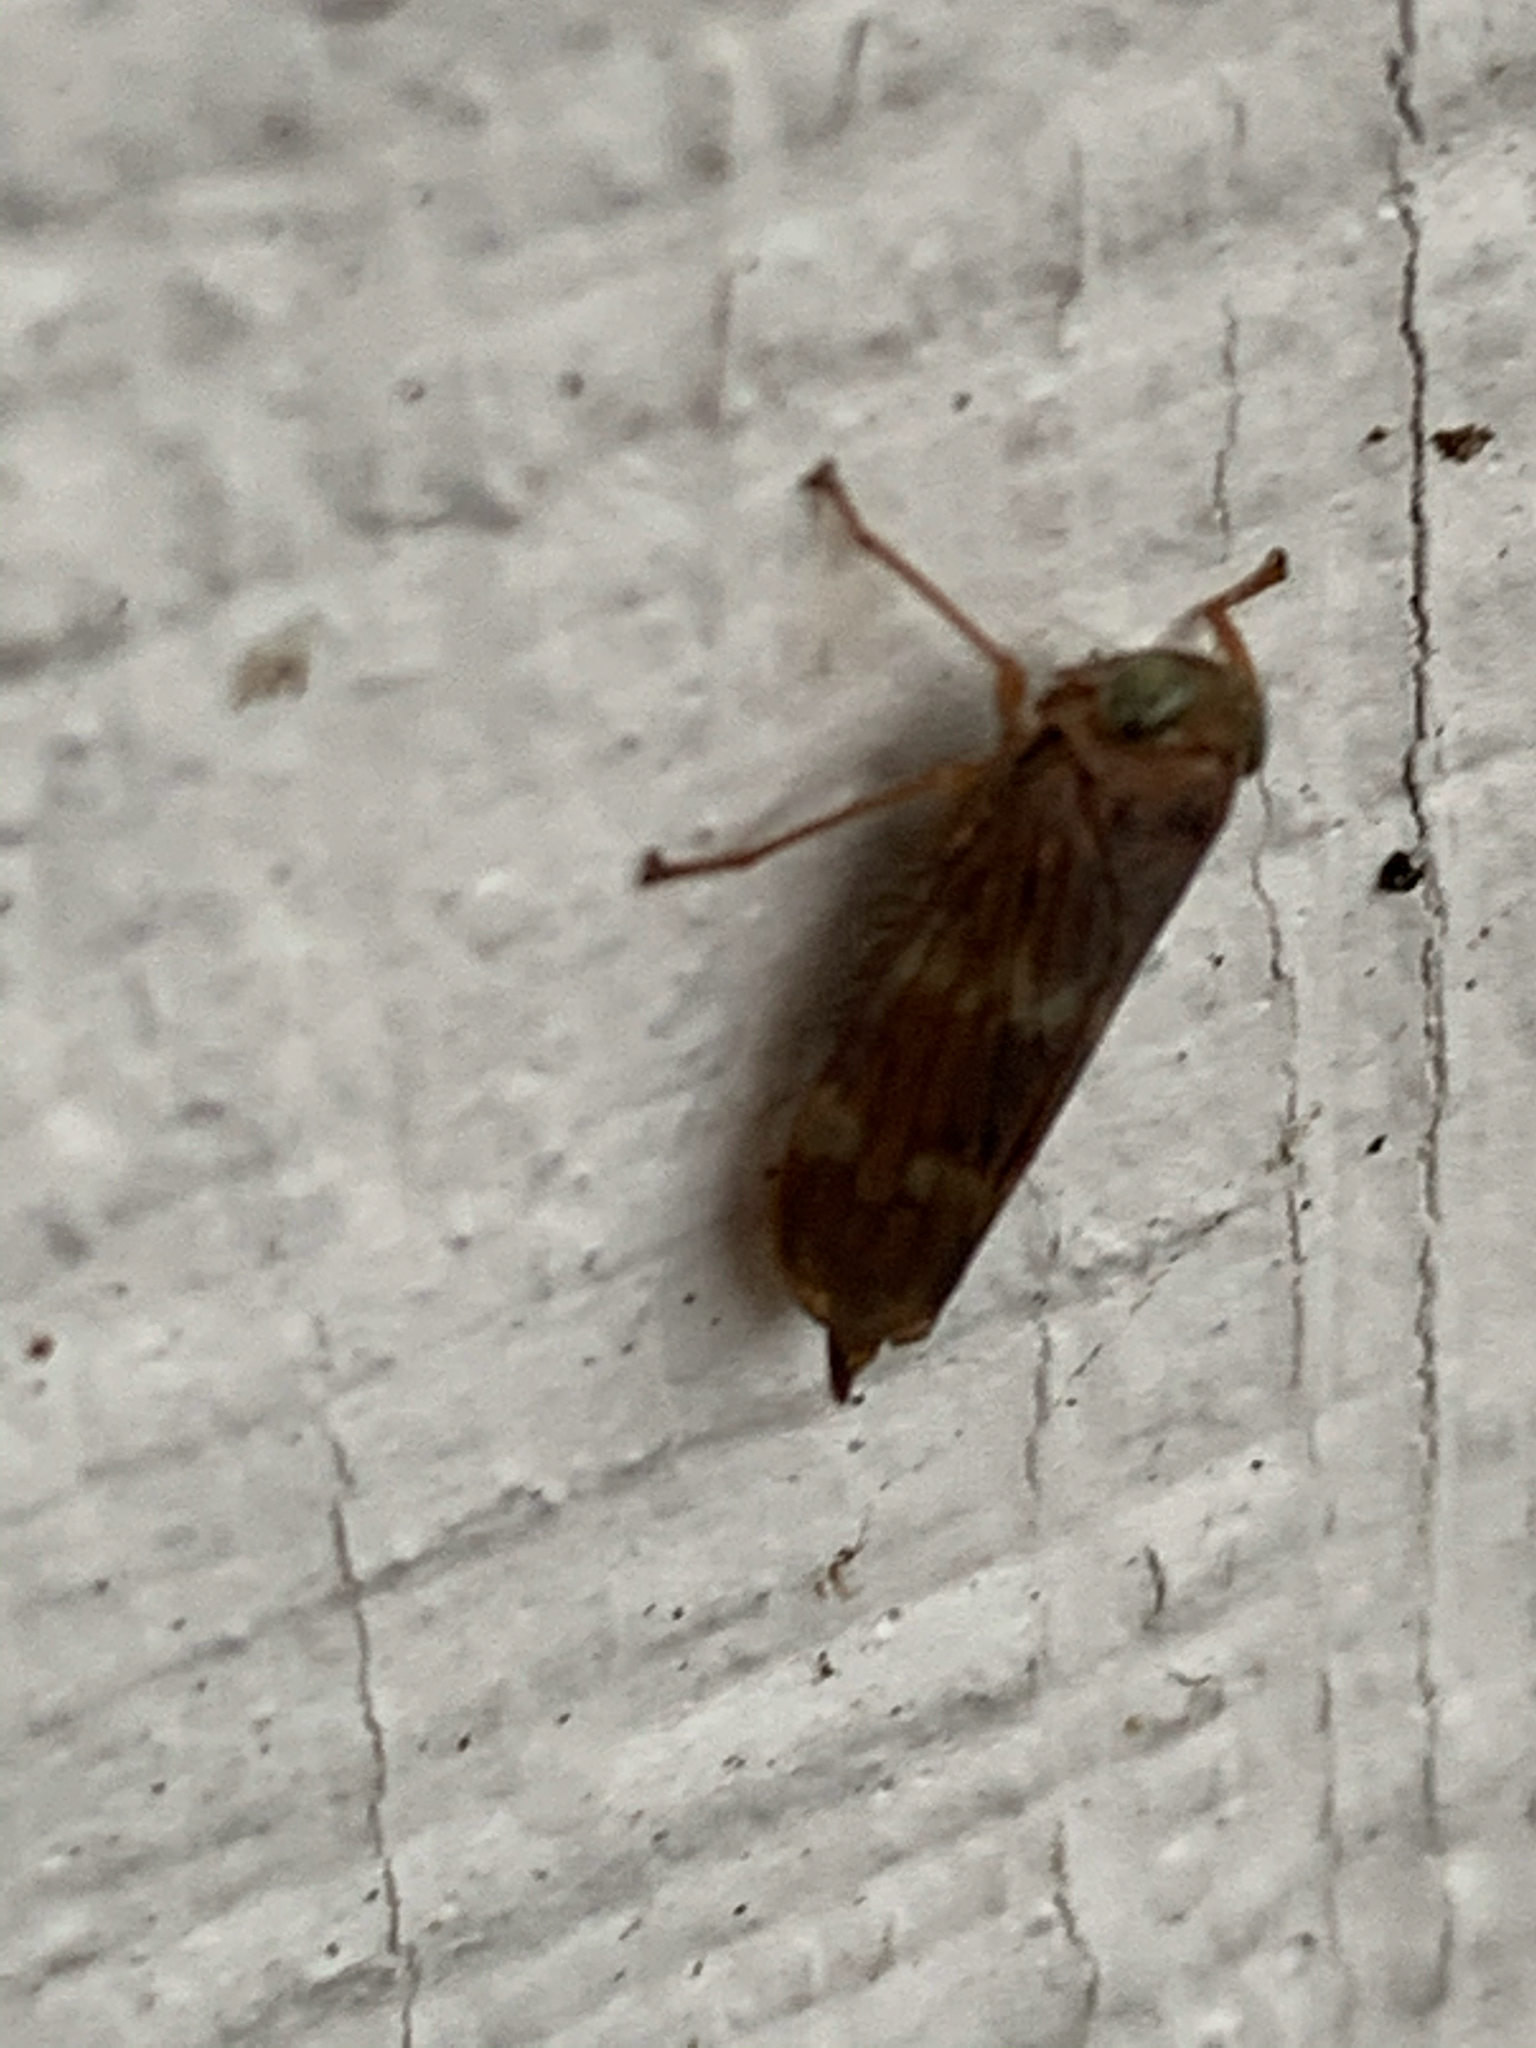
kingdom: Animalia
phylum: Arthropoda
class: Insecta
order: Hemiptera
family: Cicadellidae
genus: Jikradia
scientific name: Jikradia olitoria
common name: Coppery leafhopper
